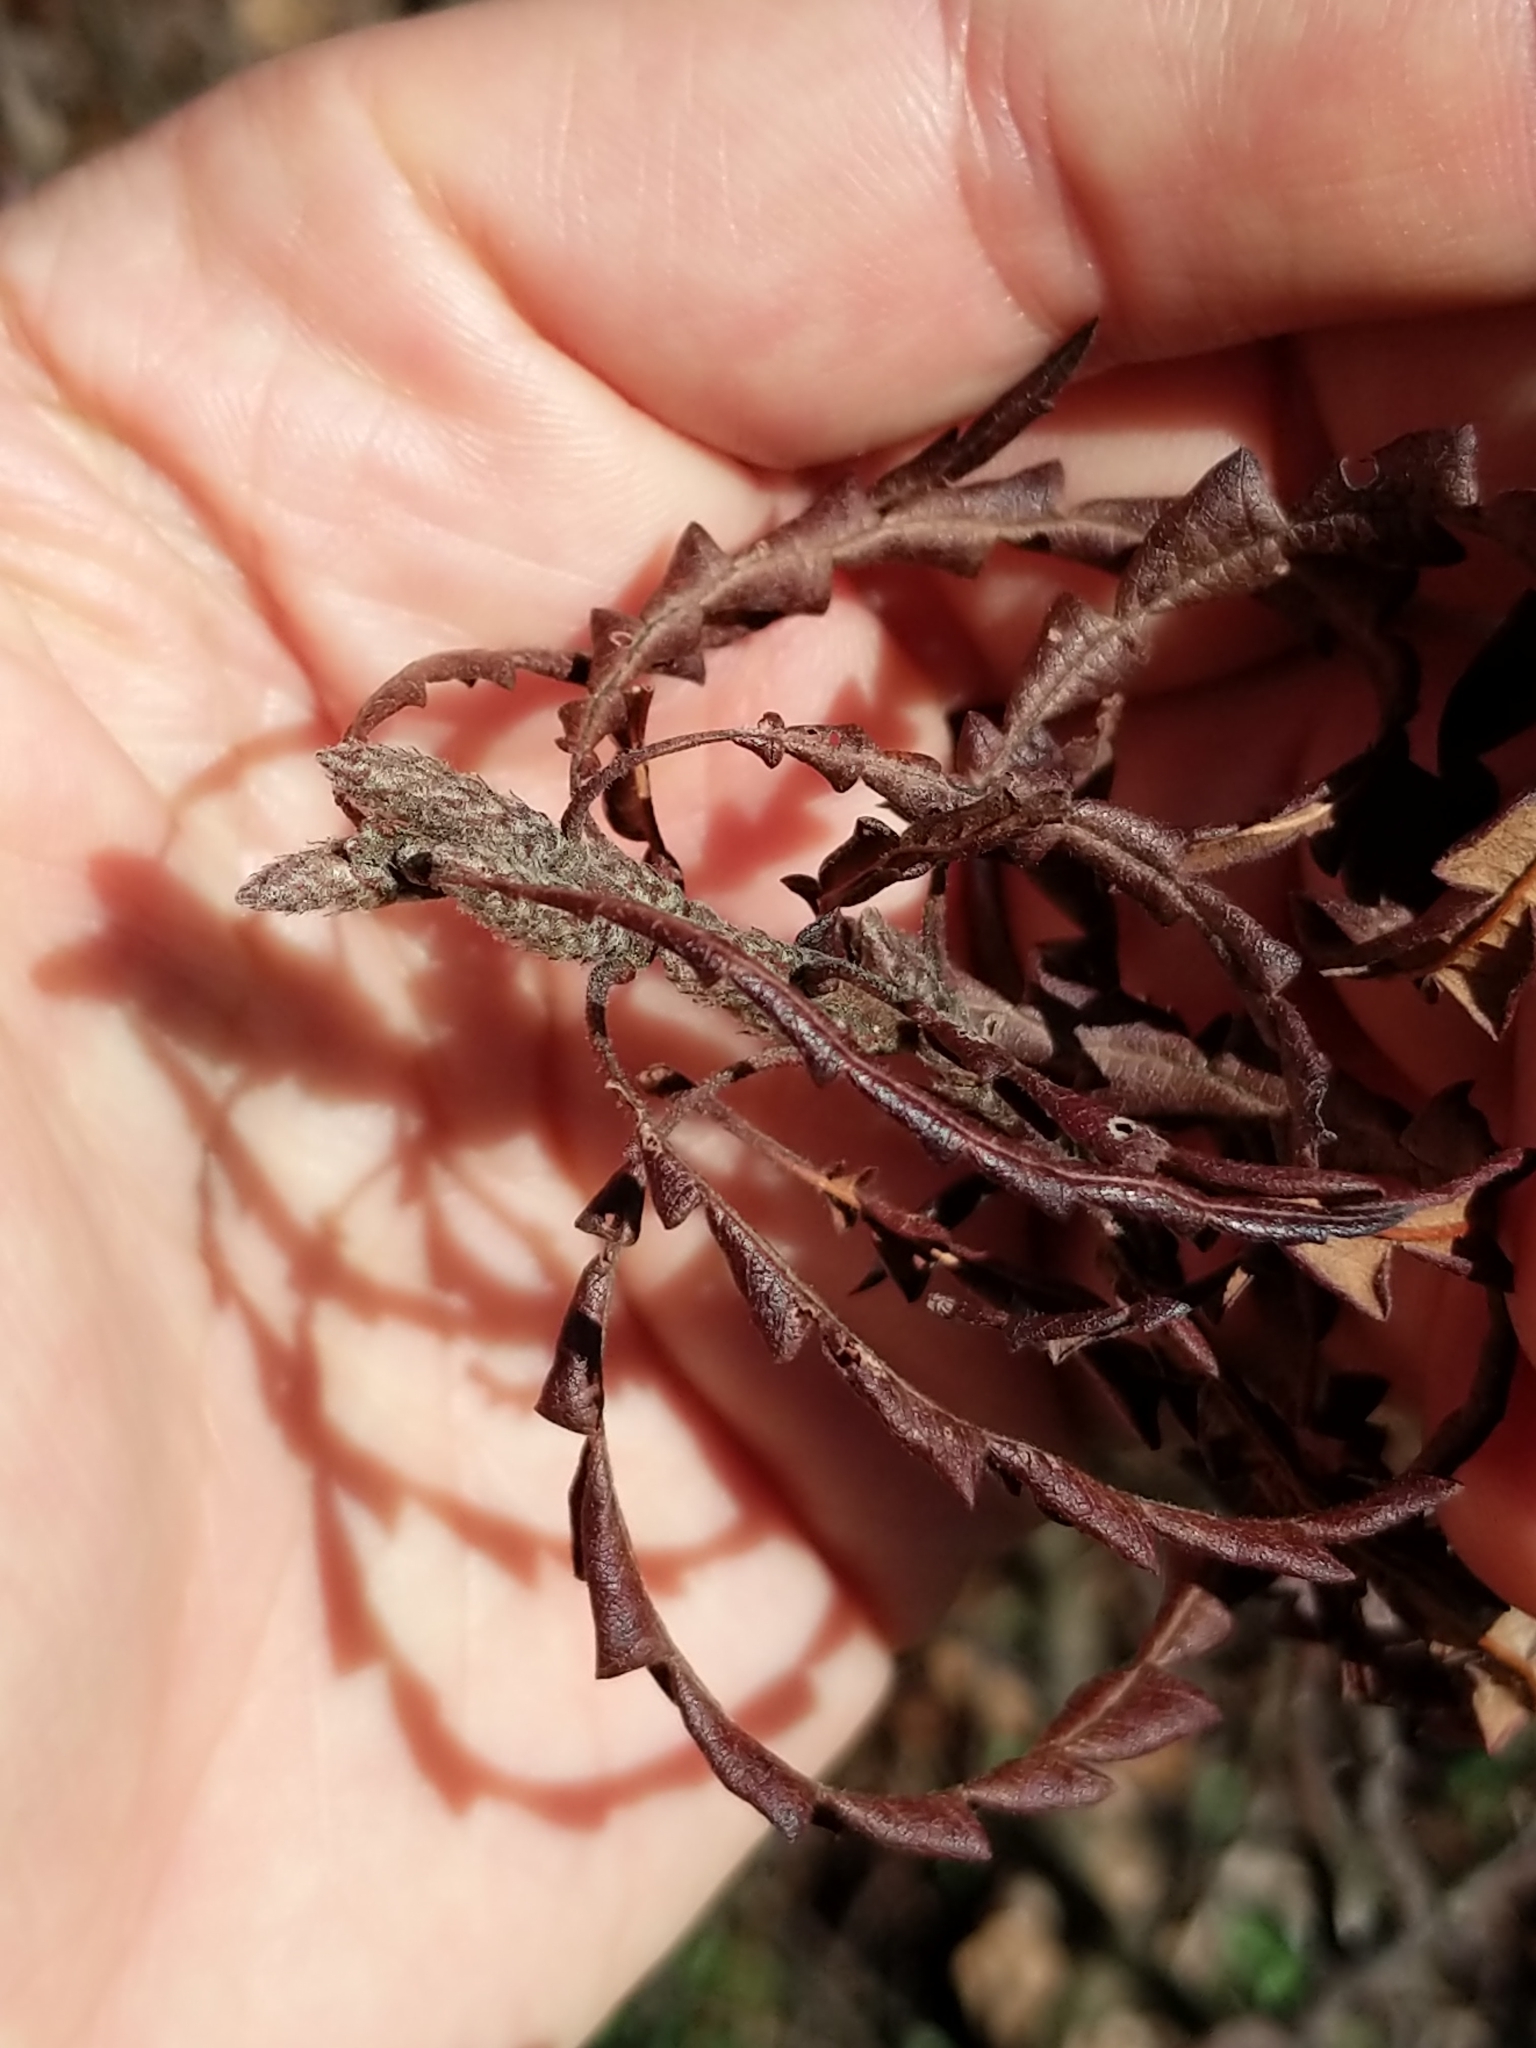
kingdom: Plantae
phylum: Tracheophyta
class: Magnoliopsida
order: Fagales
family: Myricaceae
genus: Comptonia
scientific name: Comptonia peregrina
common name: Sweet-fern
